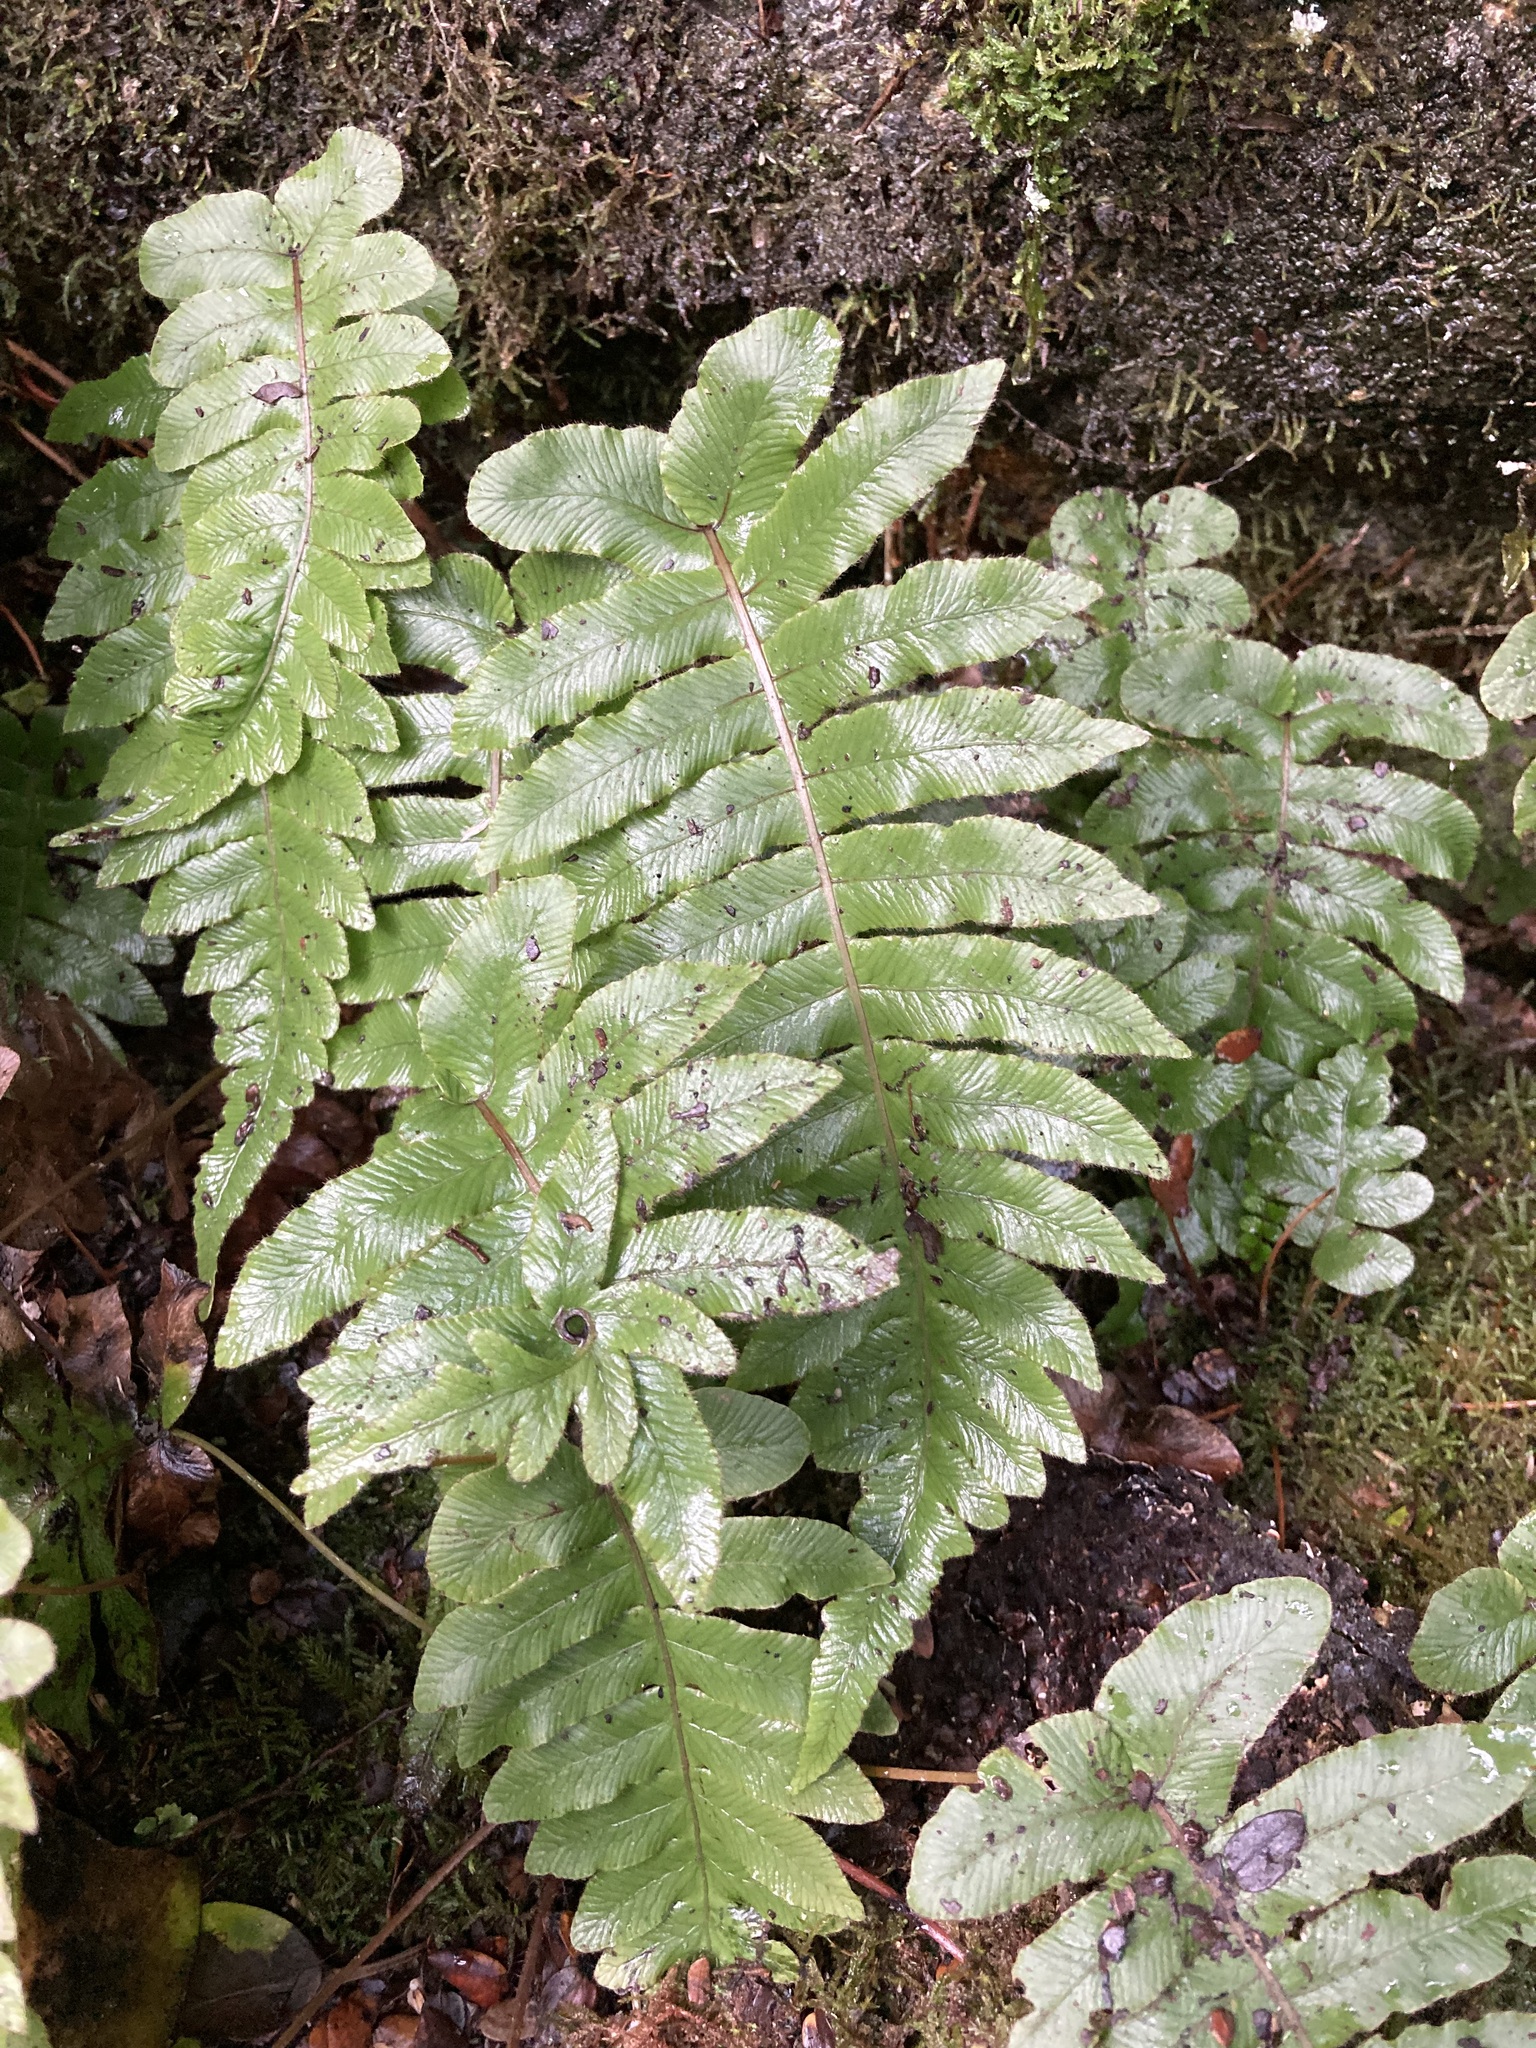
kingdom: Plantae
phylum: Tracheophyta
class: Polypodiopsida
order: Polypodiales
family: Blechnaceae
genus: Cranfillia
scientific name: Cranfillia deltoides
